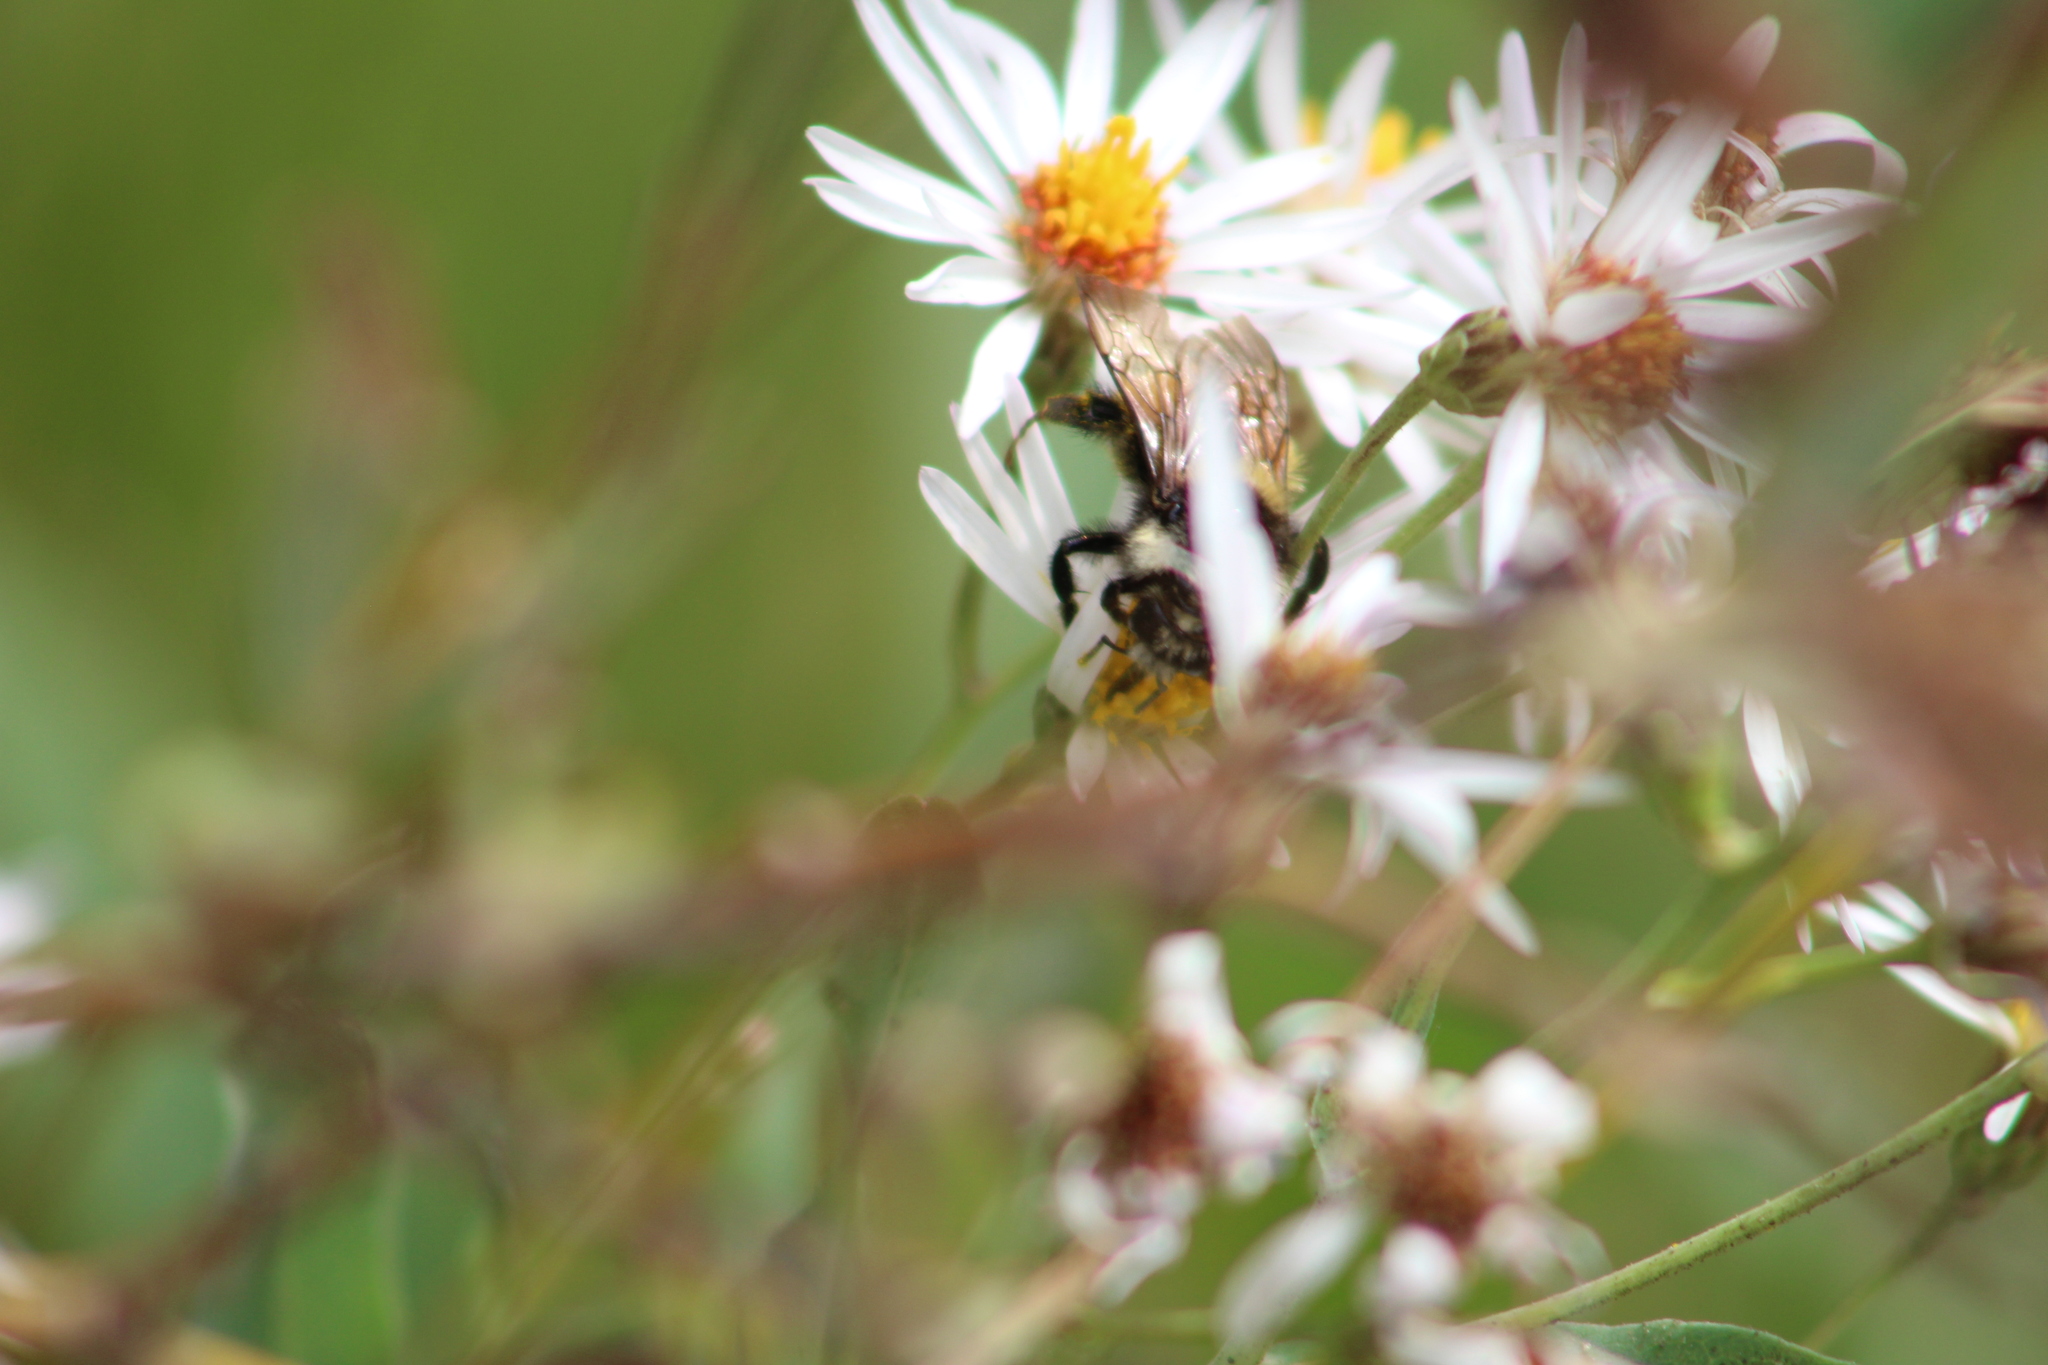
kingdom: Animalia
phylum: Arthropoda
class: Insecta
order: Hymenoptera
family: Apidae
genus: Bombus
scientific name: Bombus appositus
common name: White-shouldered bumble bee
